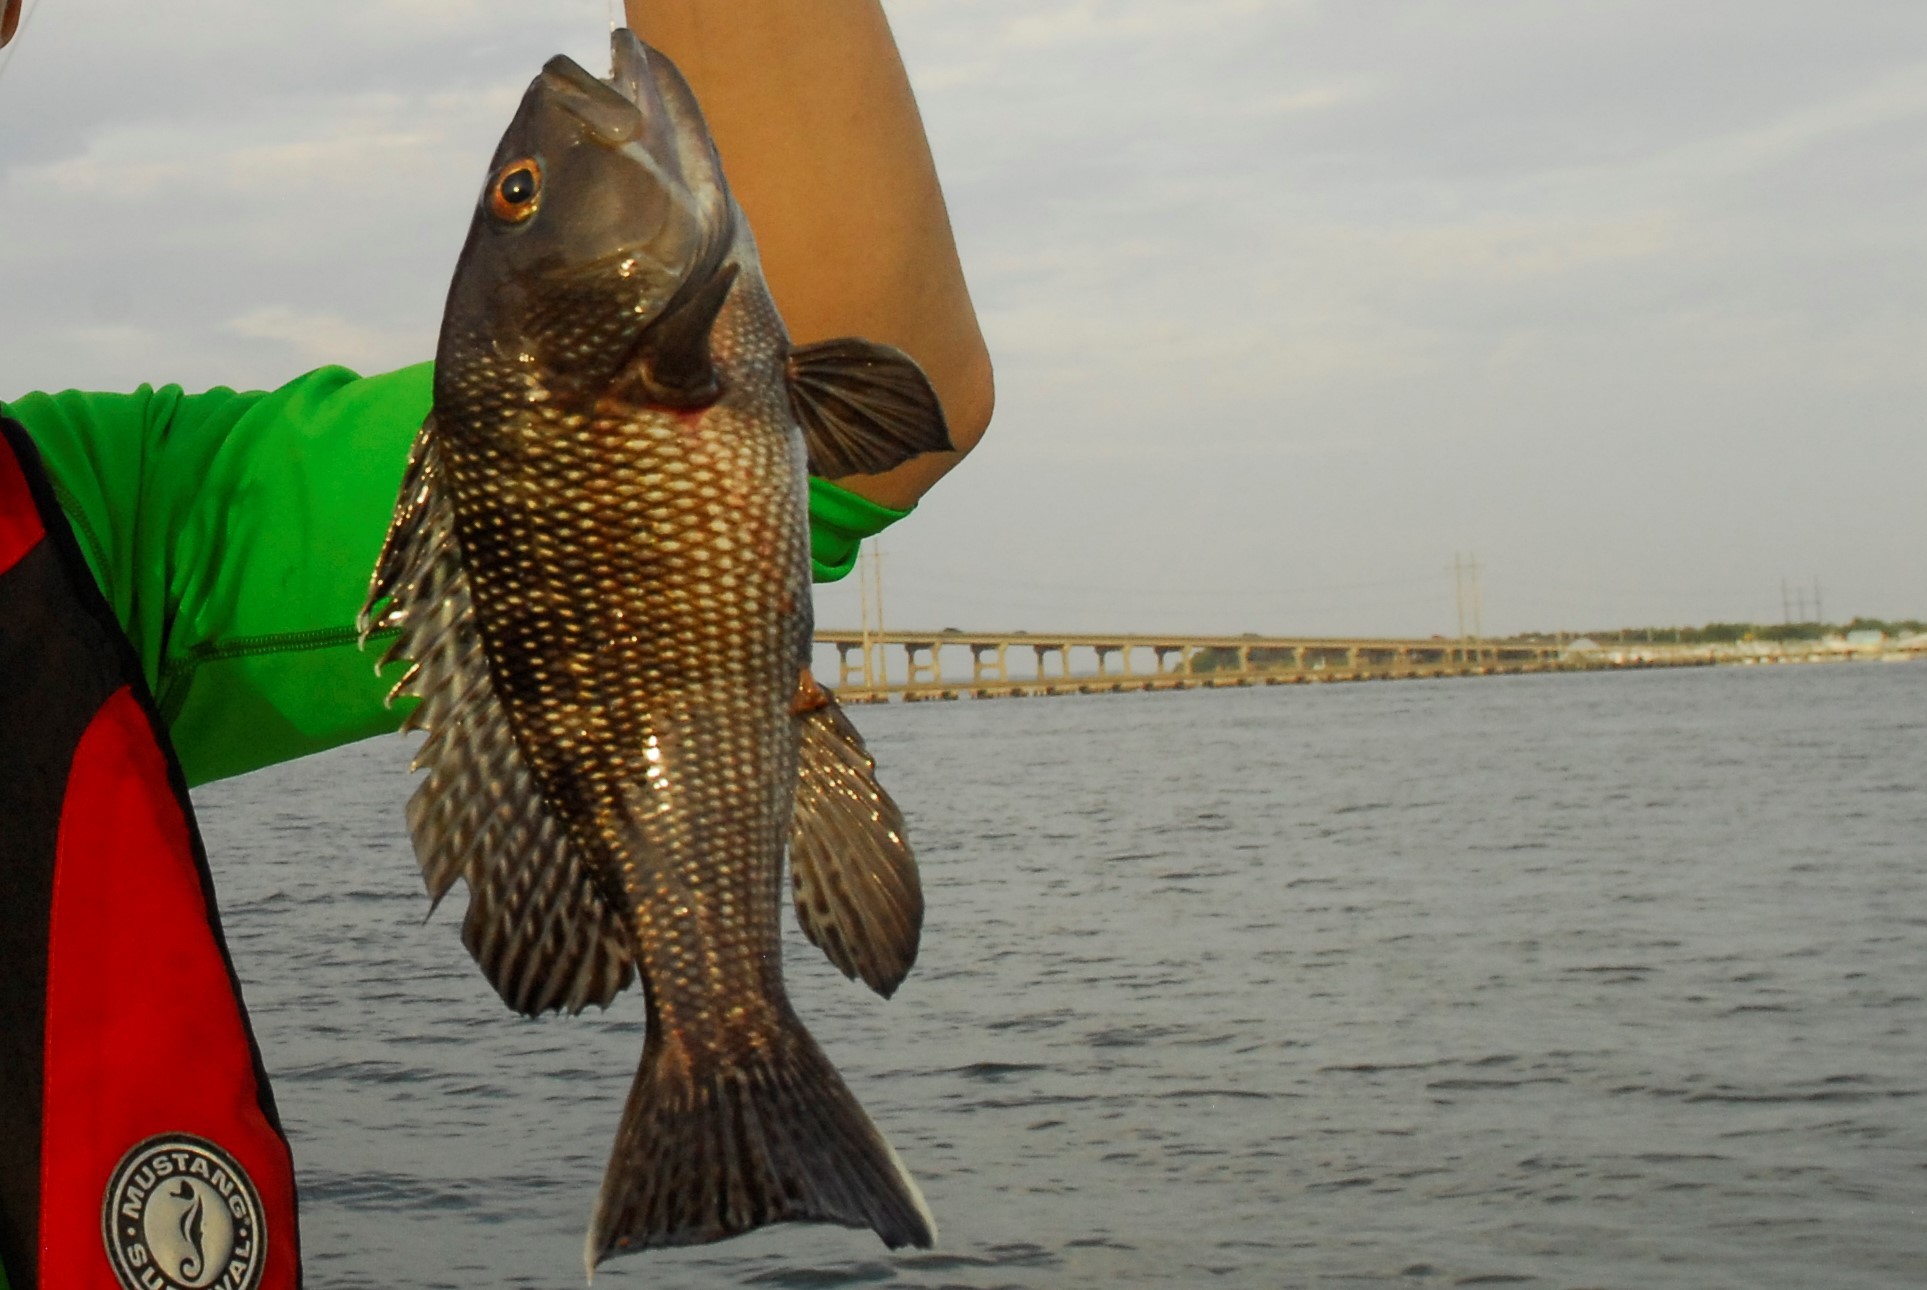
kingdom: Animalia
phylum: Chordata
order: Perciformes
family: Serranidae
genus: Centropristis
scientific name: Centropristis striata
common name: Black sea bass
